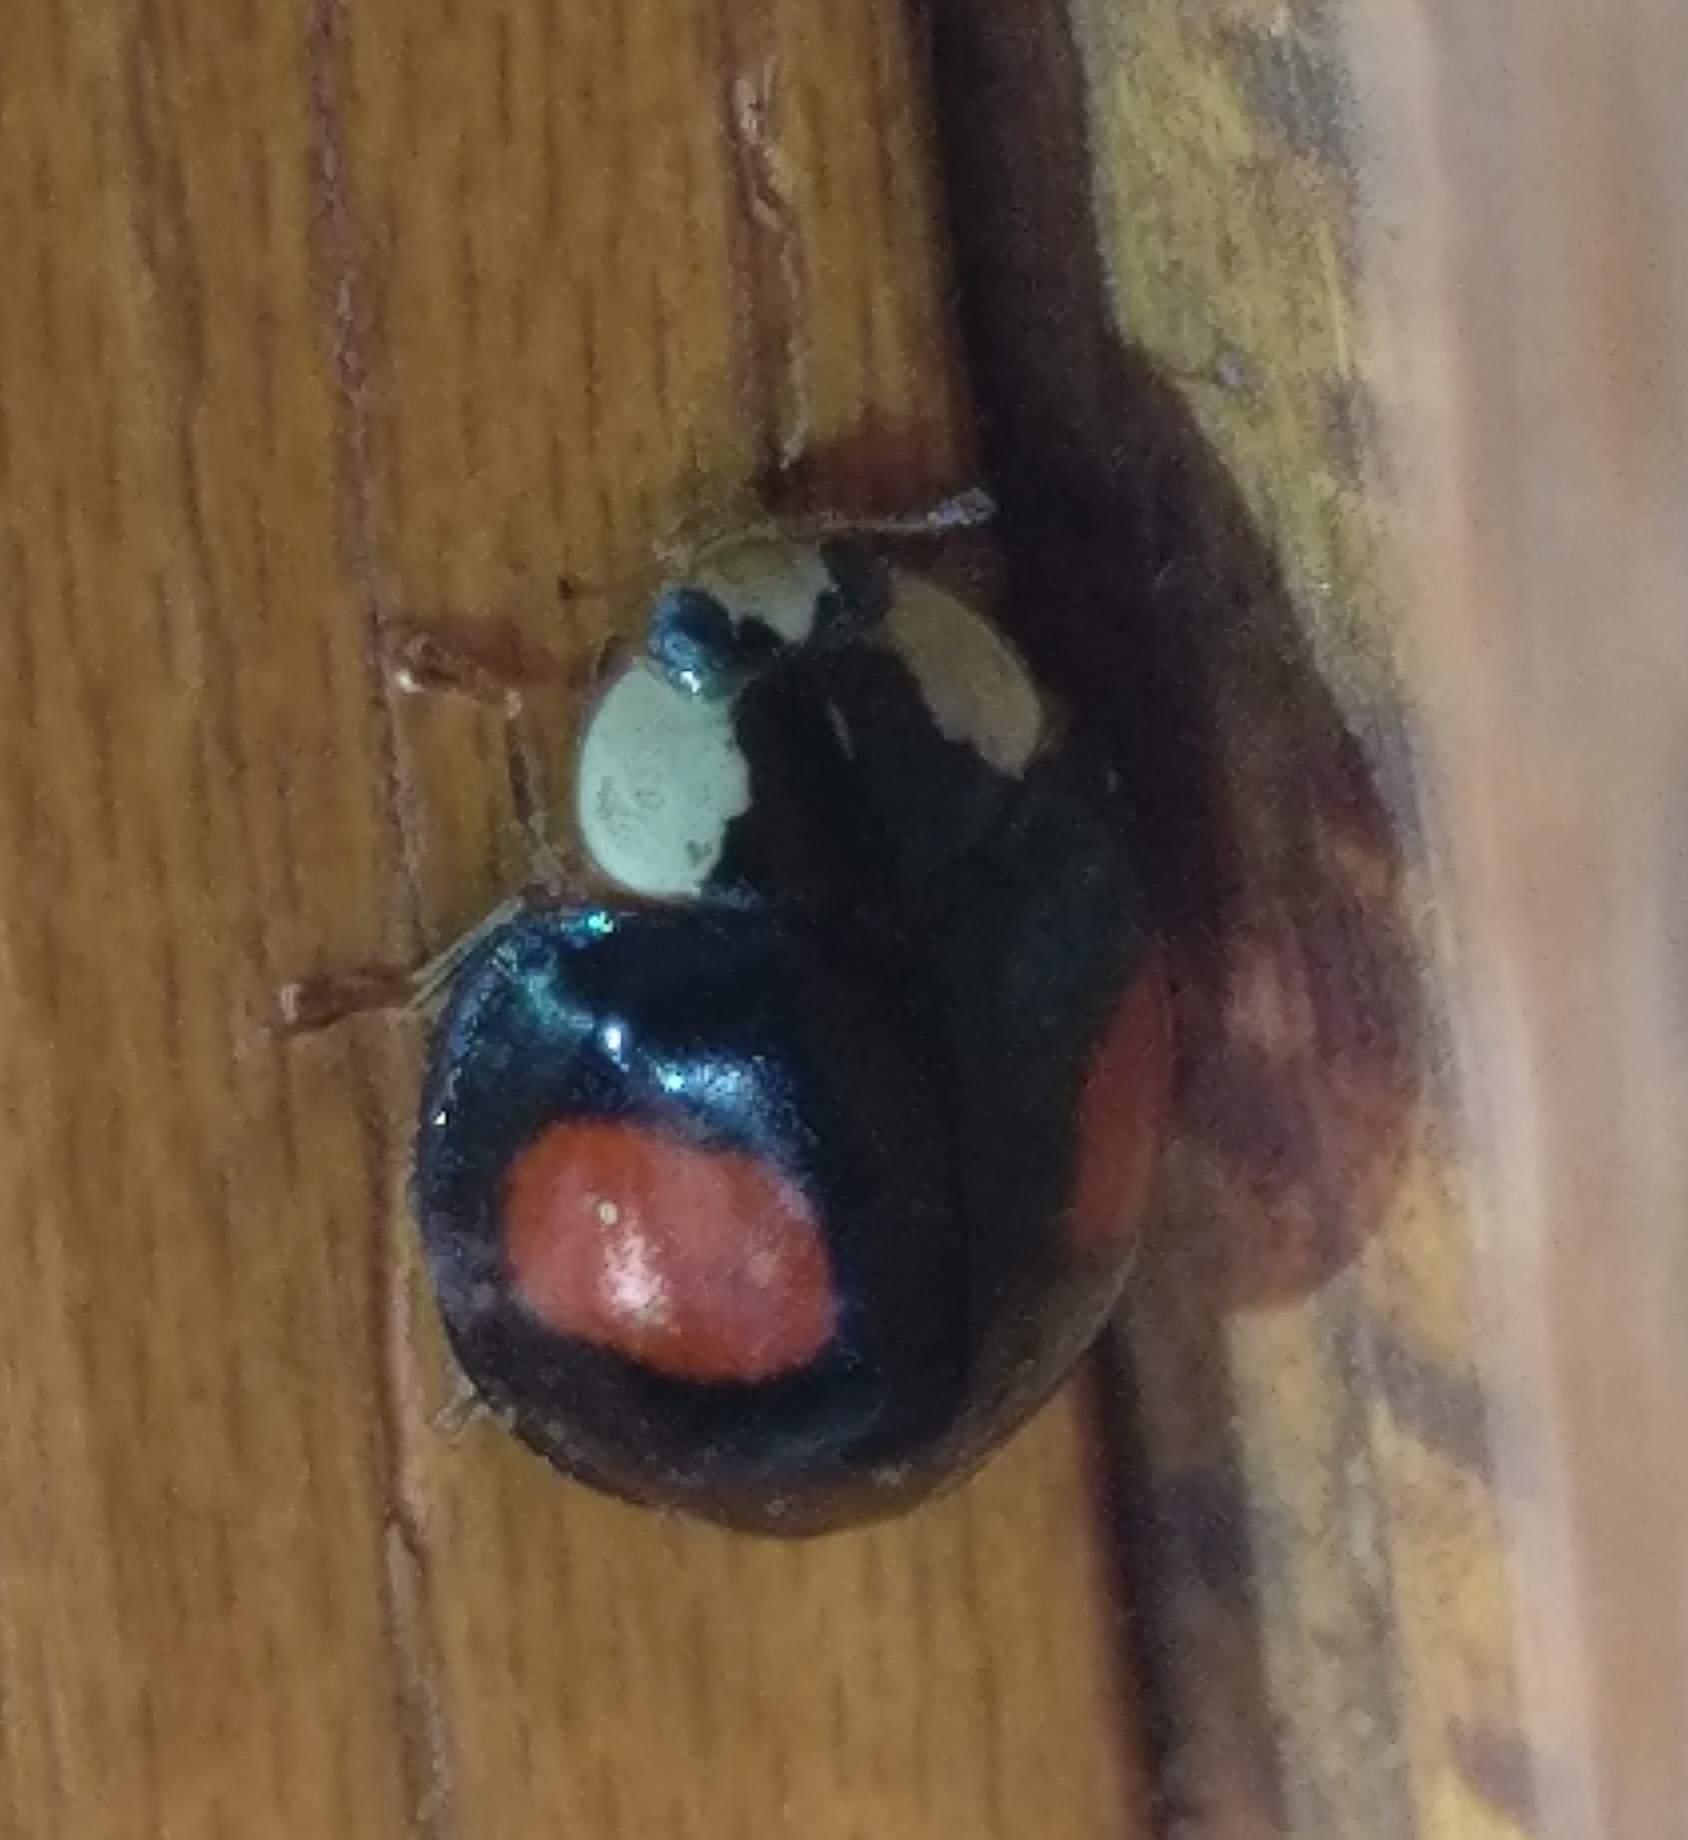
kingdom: Animalia
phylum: Arthropoda
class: Insecta
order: Coleoptera
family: Coccinellidae
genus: Harmonia
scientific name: Harmonia axyridis
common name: Harlequin ladybird
